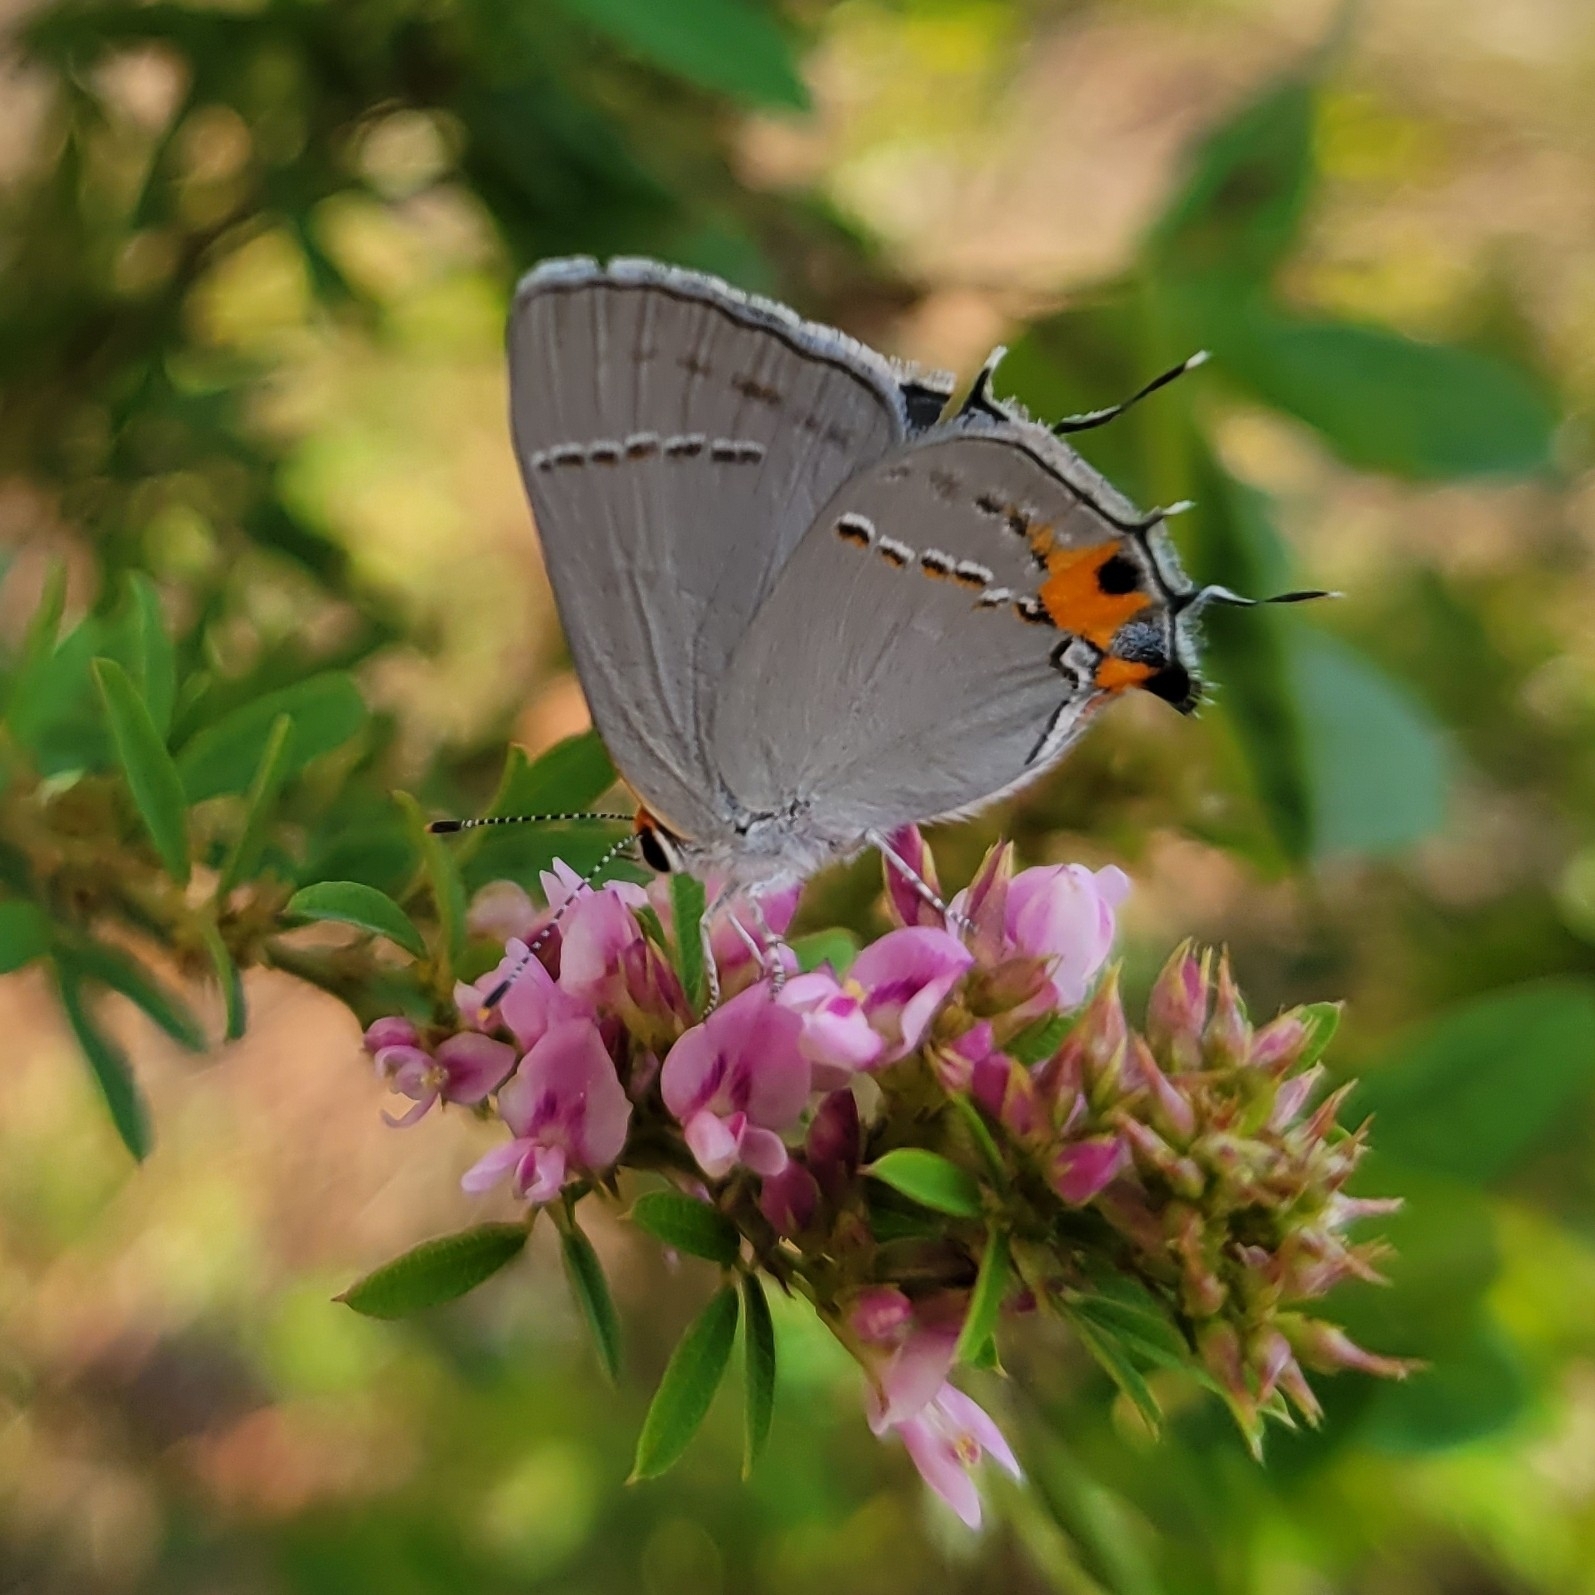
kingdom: Animalia
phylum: Arthropoda
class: Insecta
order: Lepidoptera
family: Lycaenidae
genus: Strymon
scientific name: Strymon melinus
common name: Gray hairstreak
